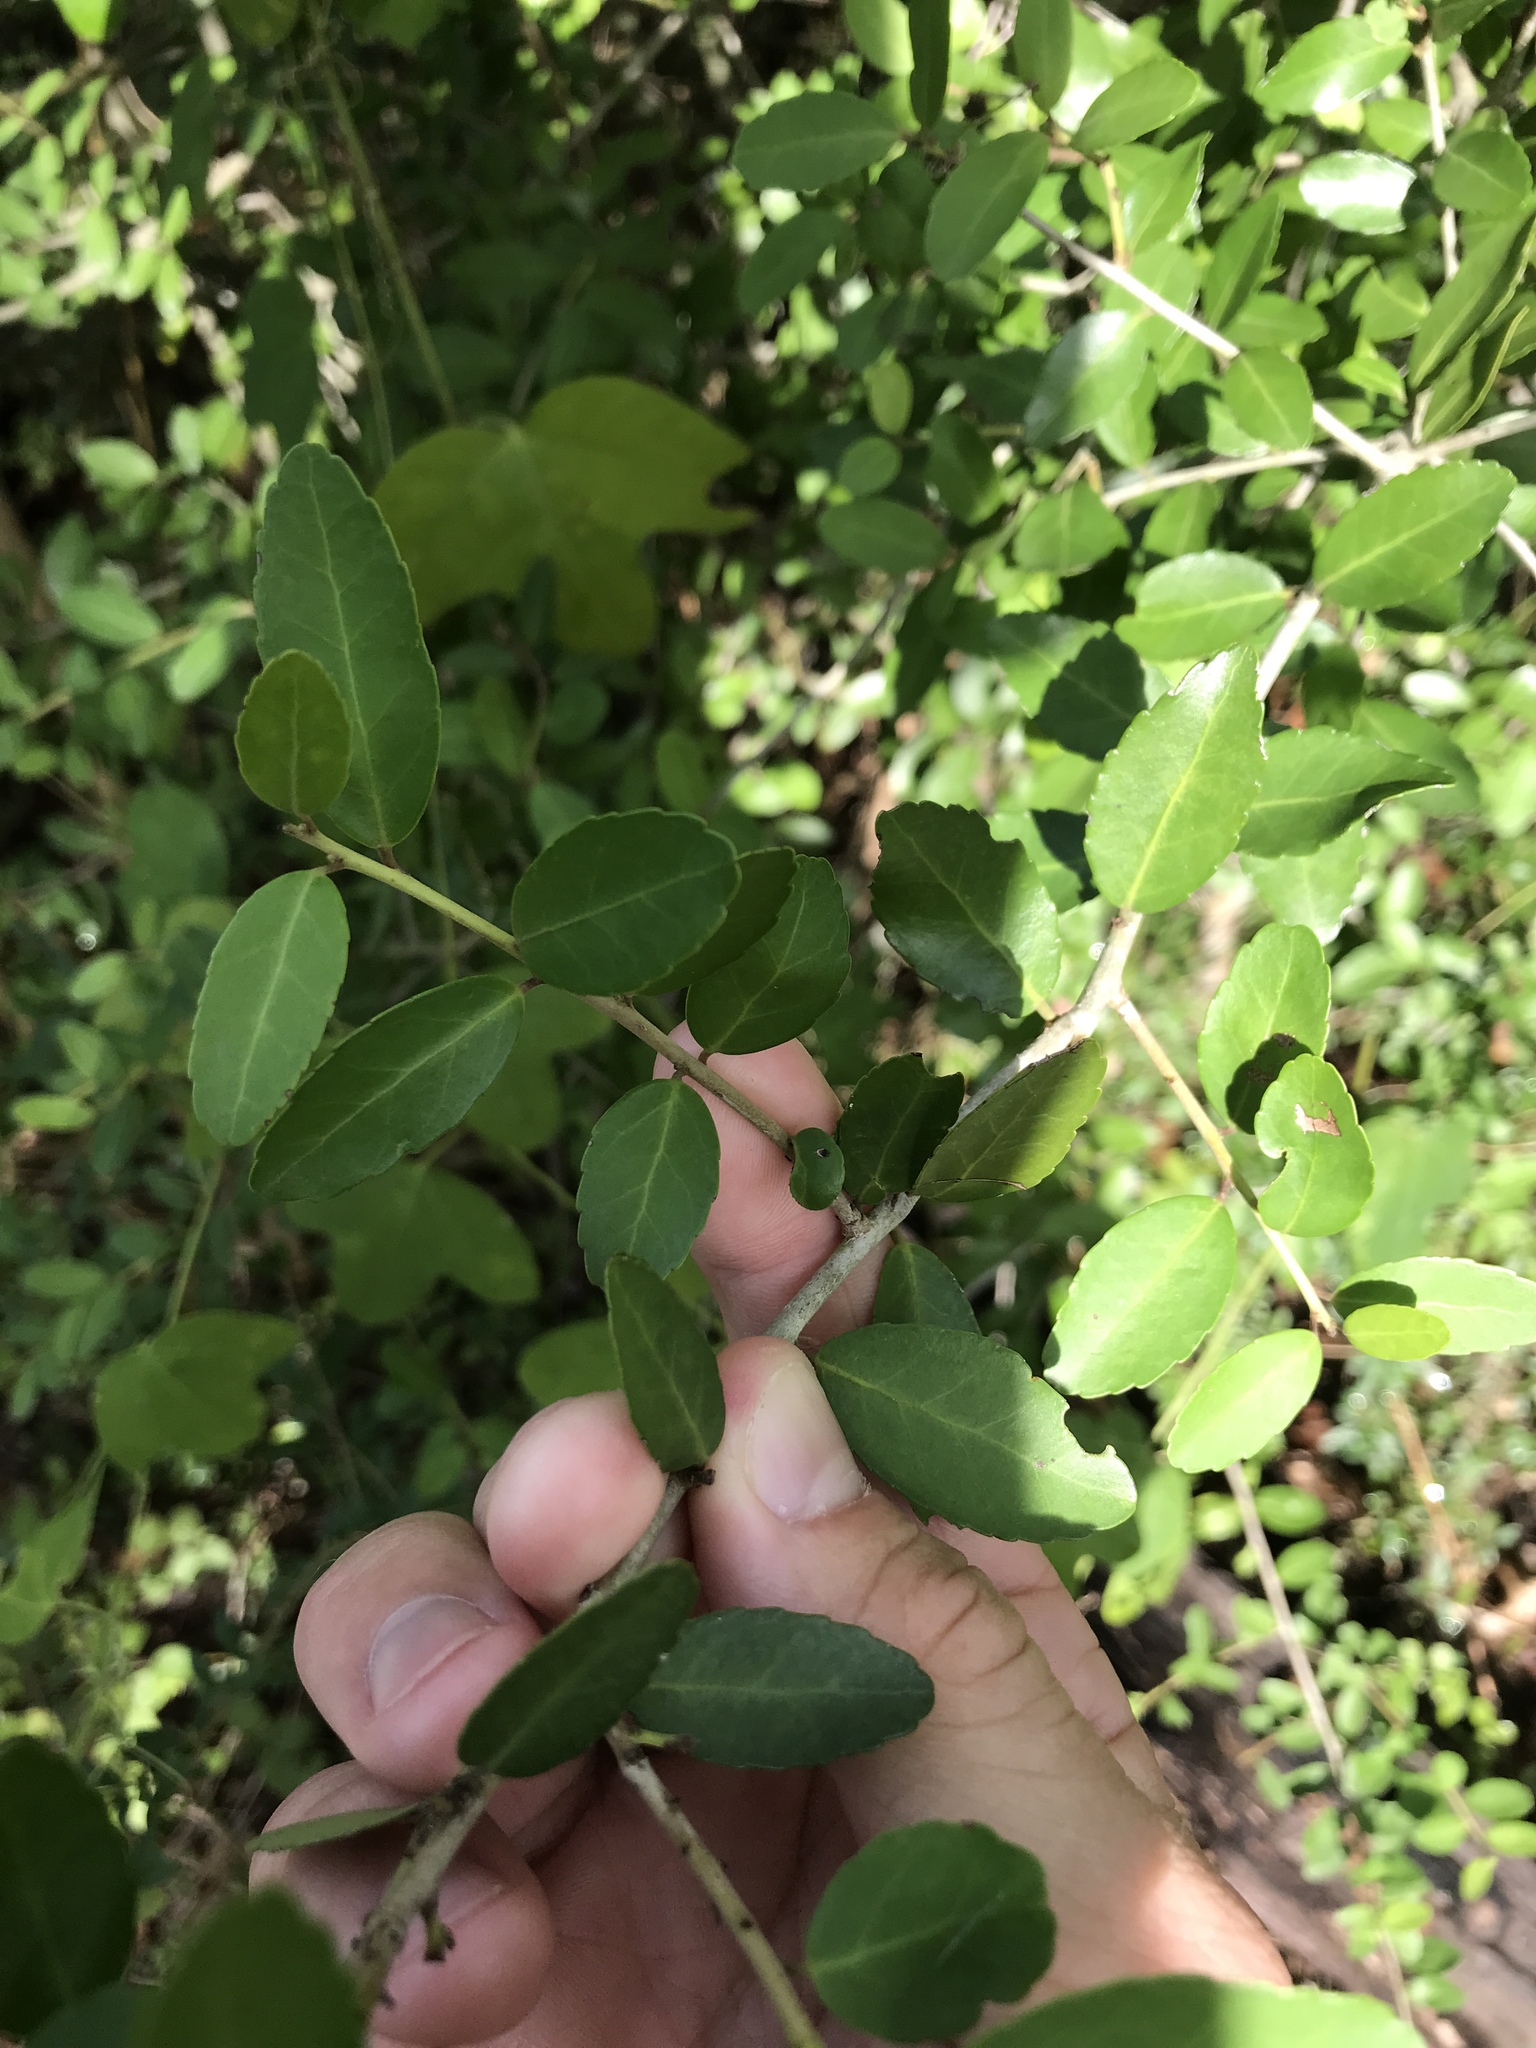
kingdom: Plantae
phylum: Tracheophyta
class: Magnoliopsida
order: Aquifoliales
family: Aquifoliaceae
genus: Ilex
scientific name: Ilex vomitoria
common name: Yaupon holly
